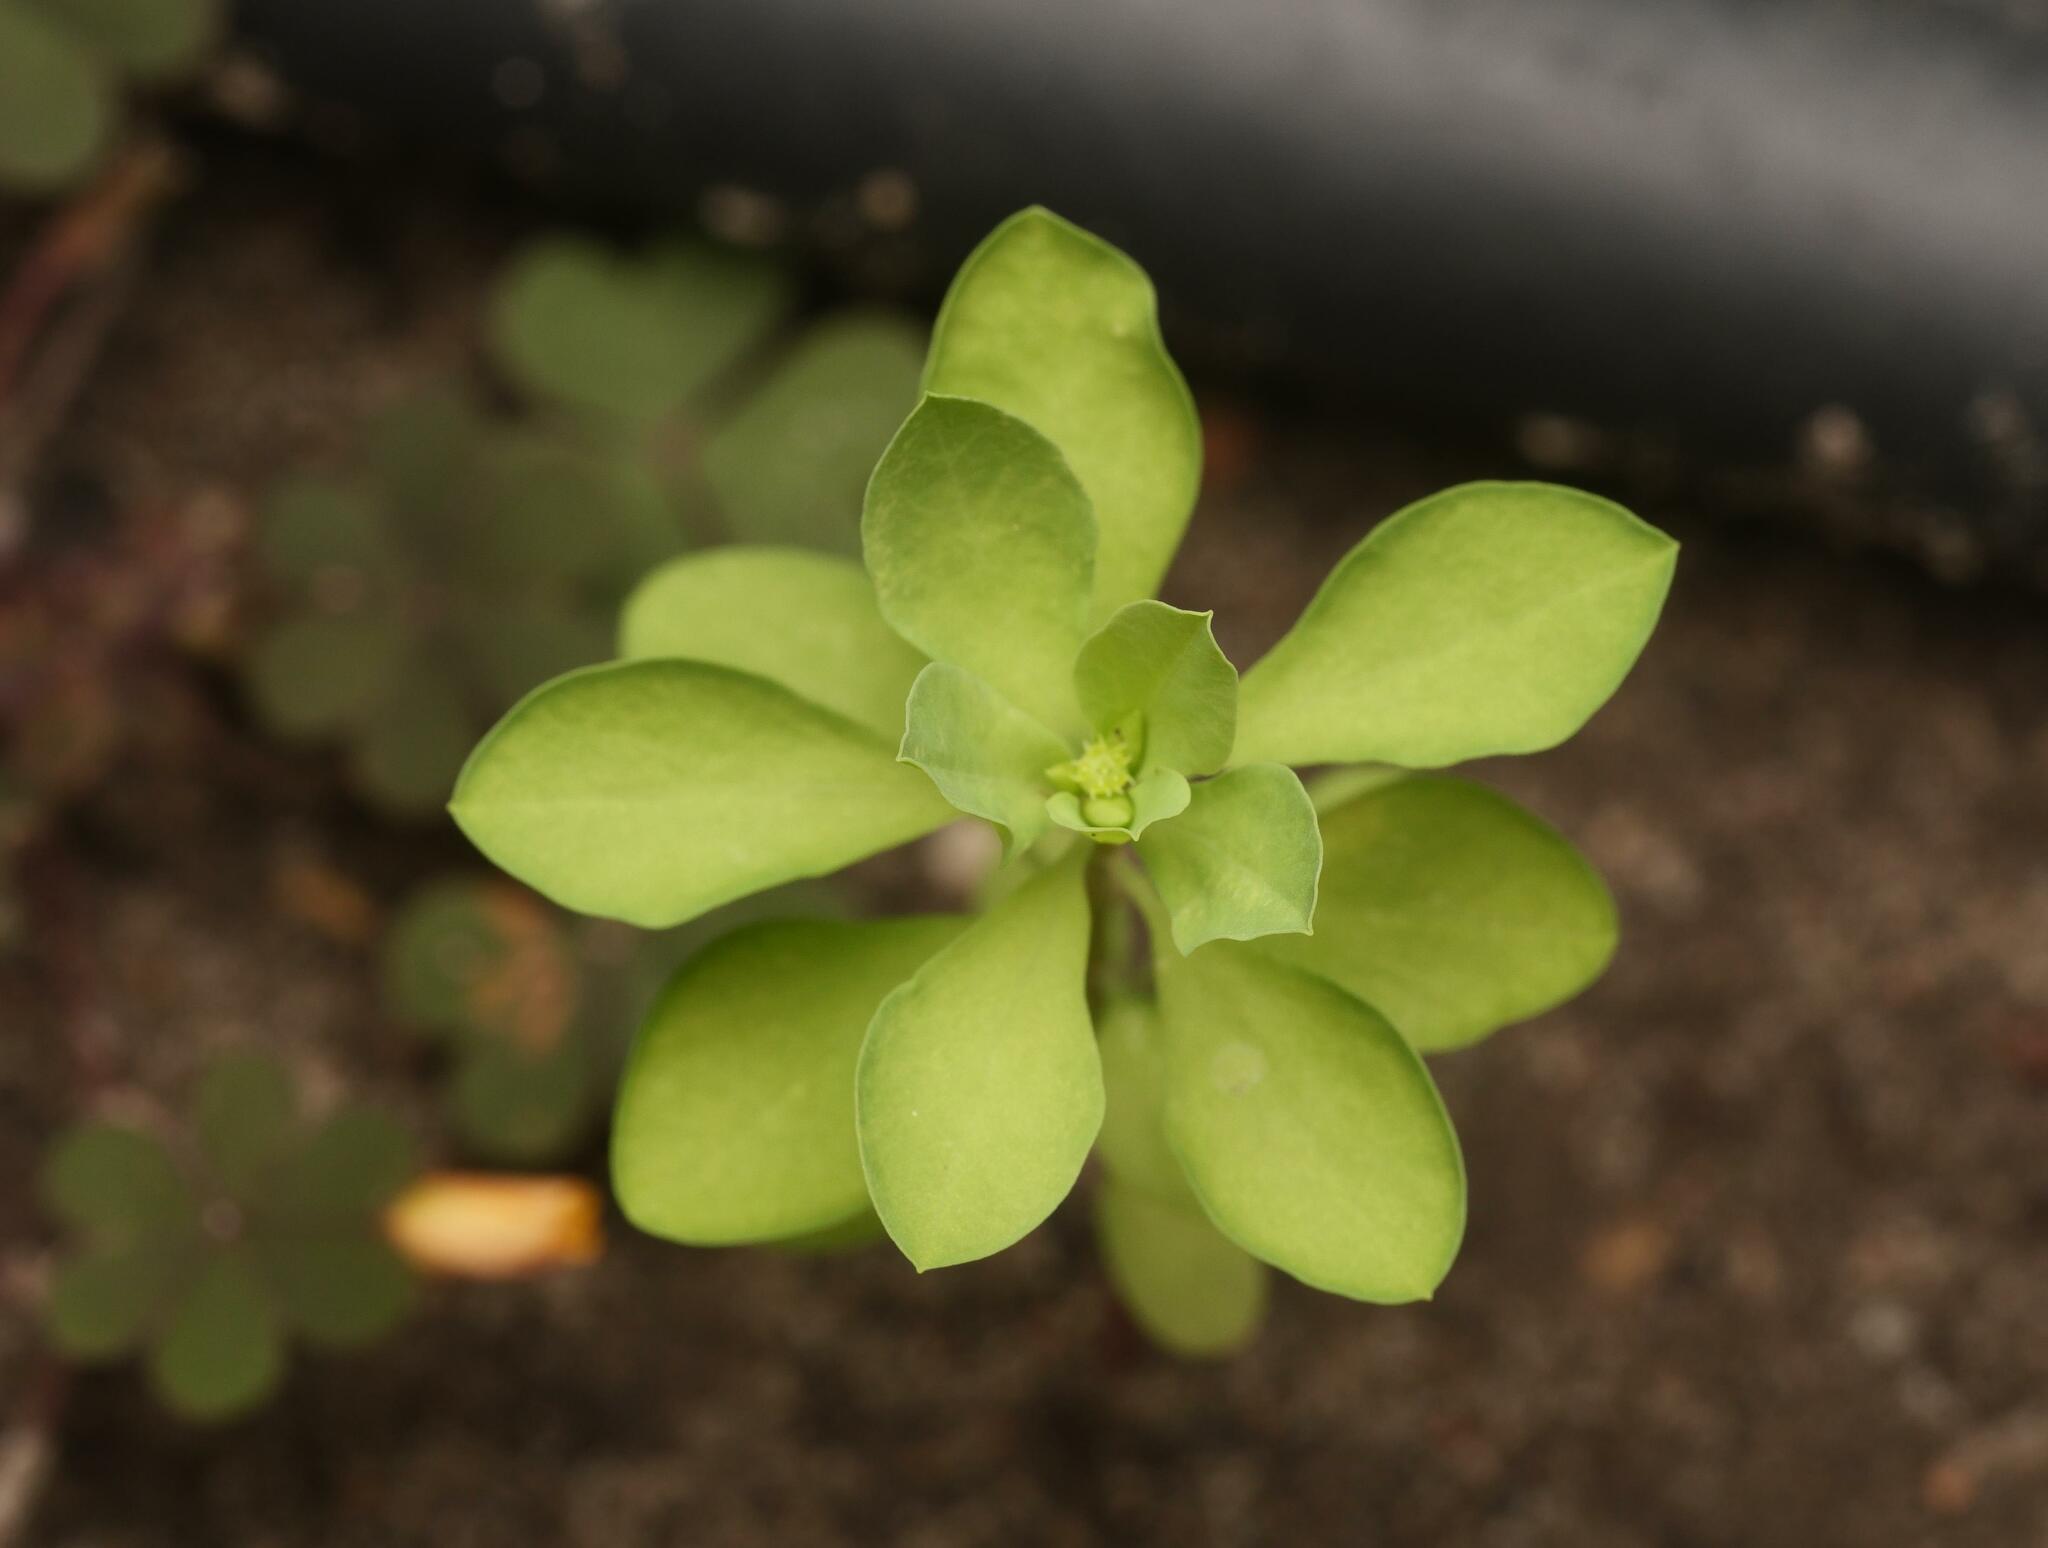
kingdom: Plantae
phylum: Tracheophyta
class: Magnoliopsida
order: Malpighiales
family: Euphorbiaceae
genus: Euphorbia
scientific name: Euphorbia peplus
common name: Petty spurge
